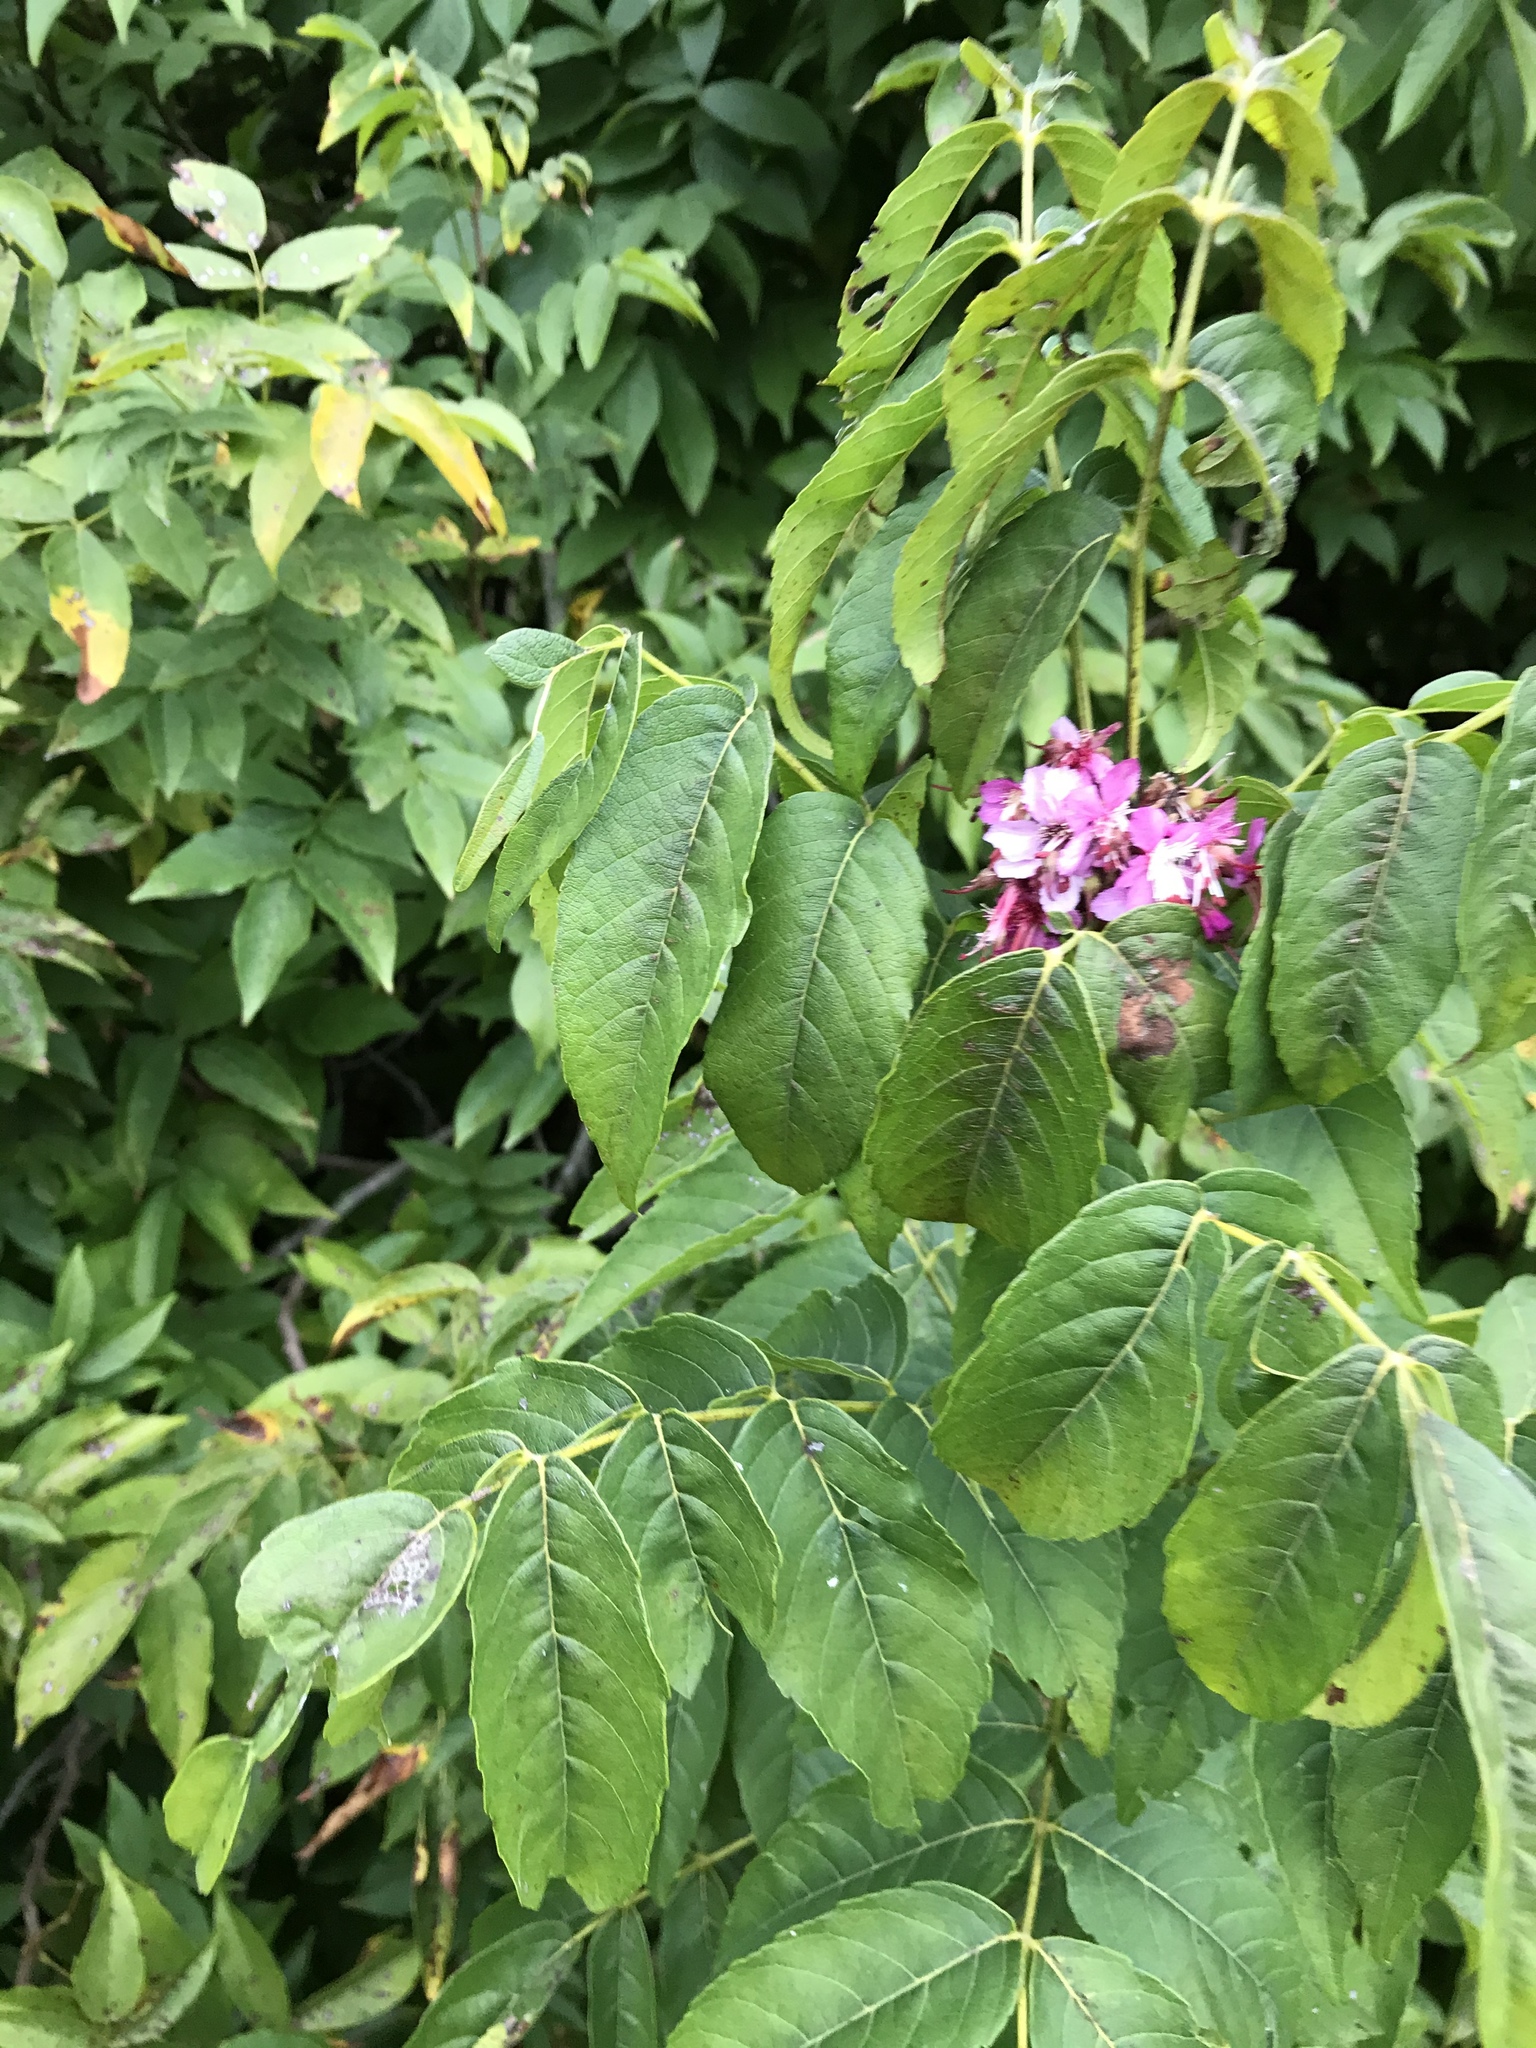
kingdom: Plantae
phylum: Tracheophyta
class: Magnoliopsida
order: Sapindales
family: Sapindaceae
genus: Ungnadia
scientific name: Ungnadia speciosa
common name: Texas-buckeye
